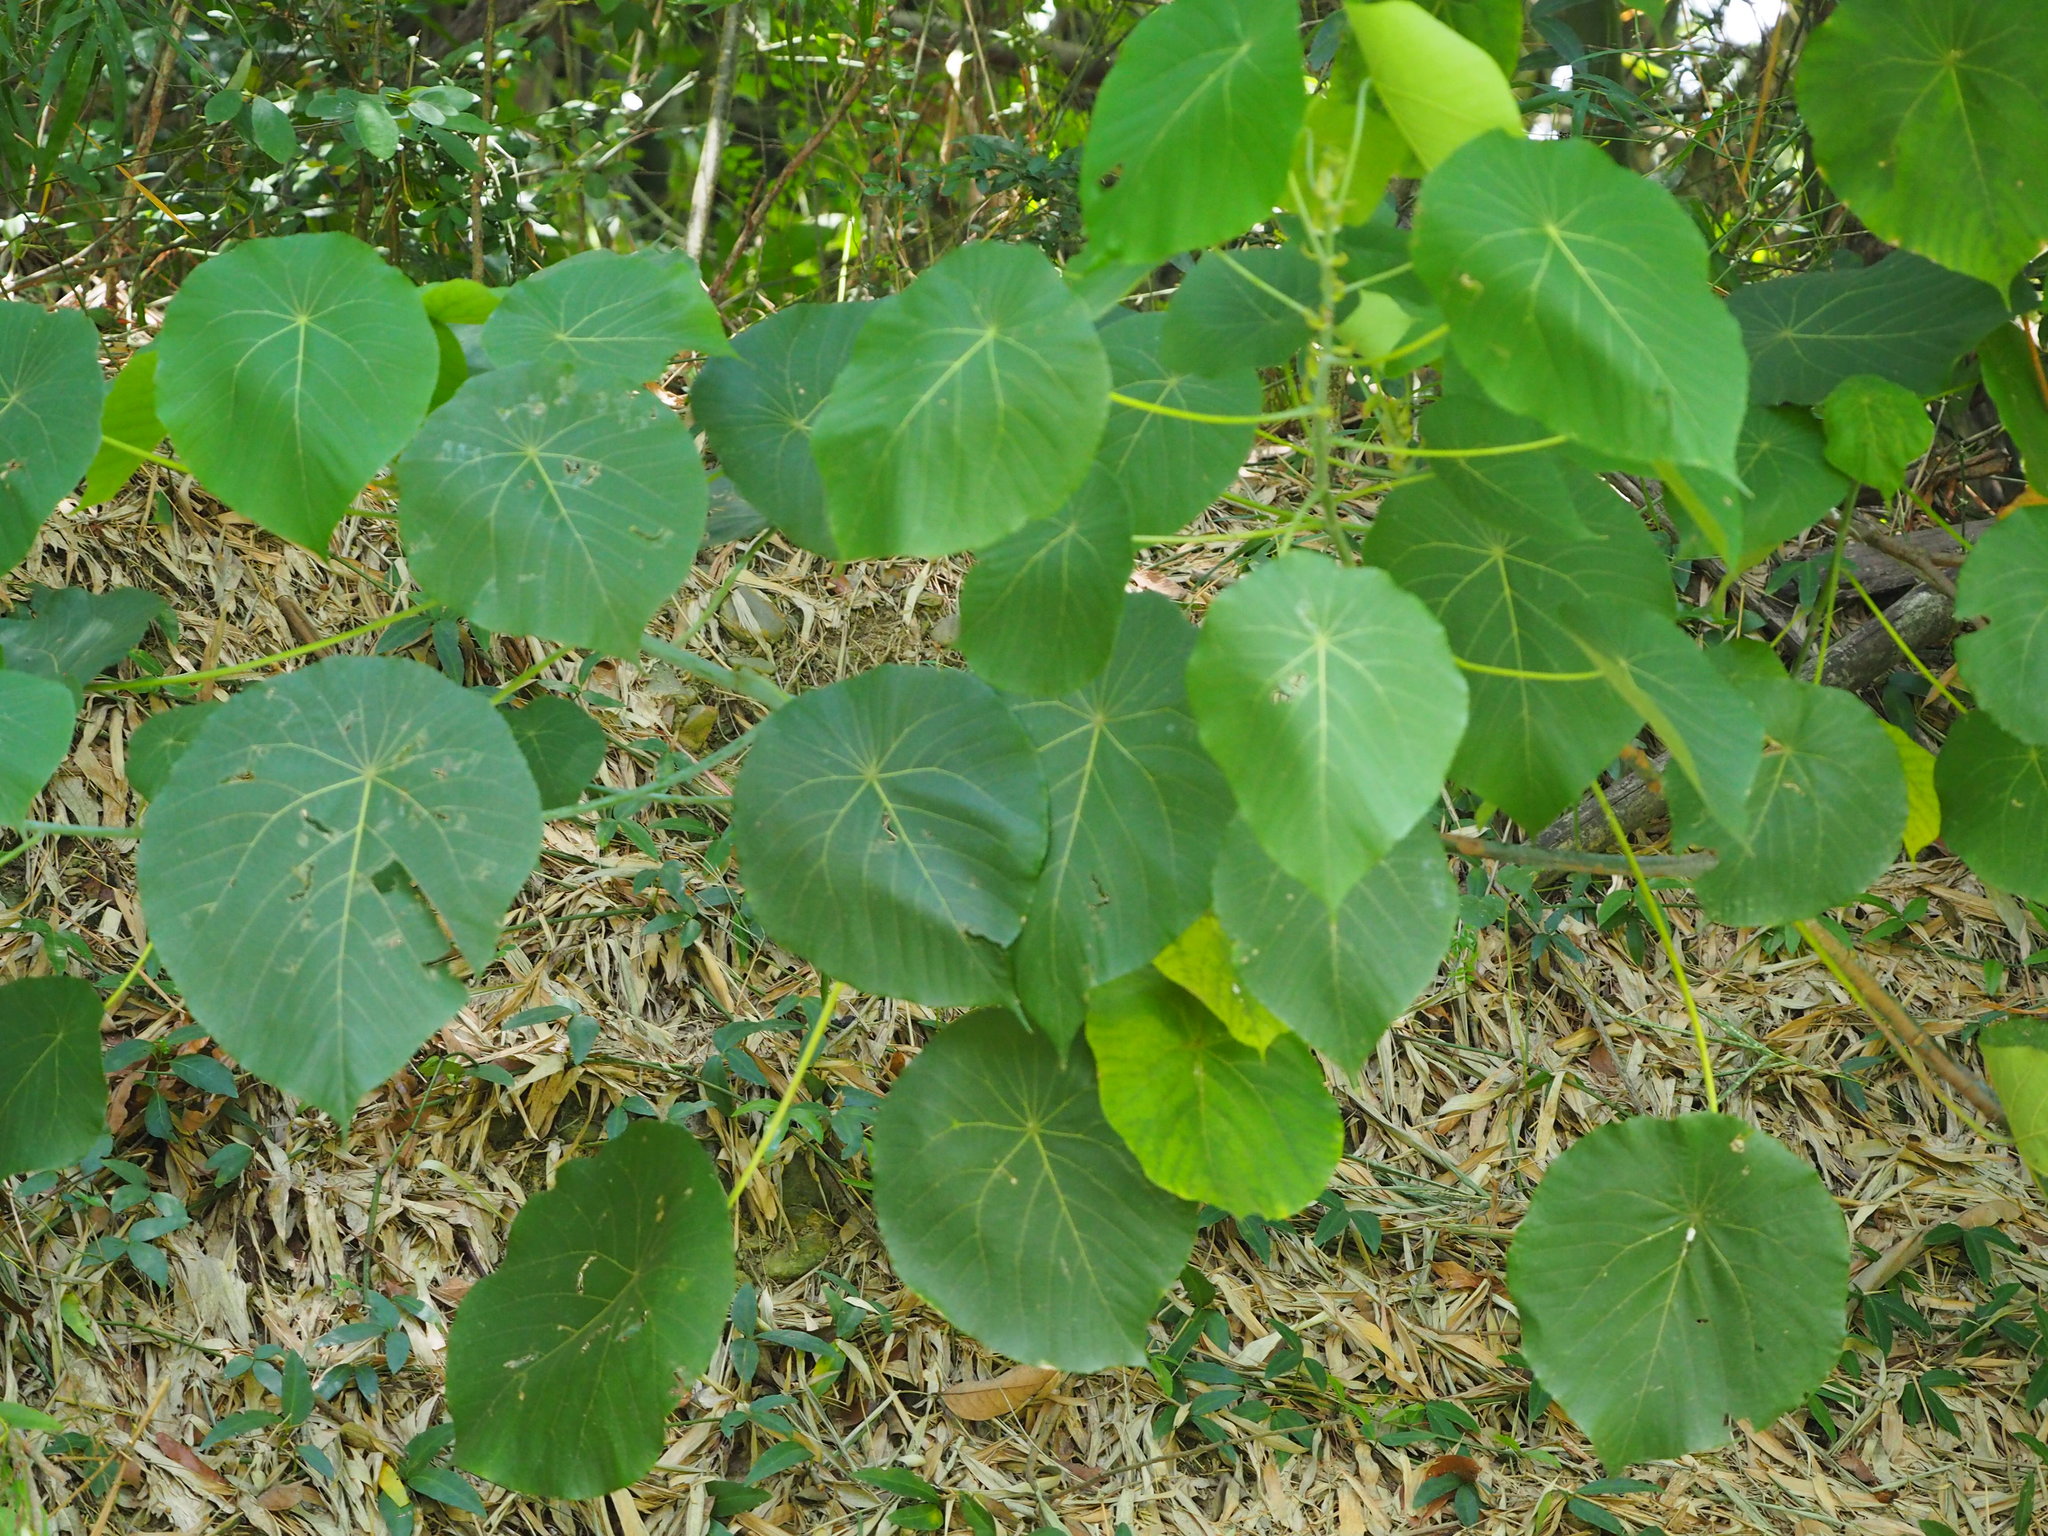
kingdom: Plantae
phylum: Tracheophyta
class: Magnoliopsida
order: Malpighiales
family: Euphorbiaceae
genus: Macaranga
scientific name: Macaranga tanarius
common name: Parasol leaf tree
